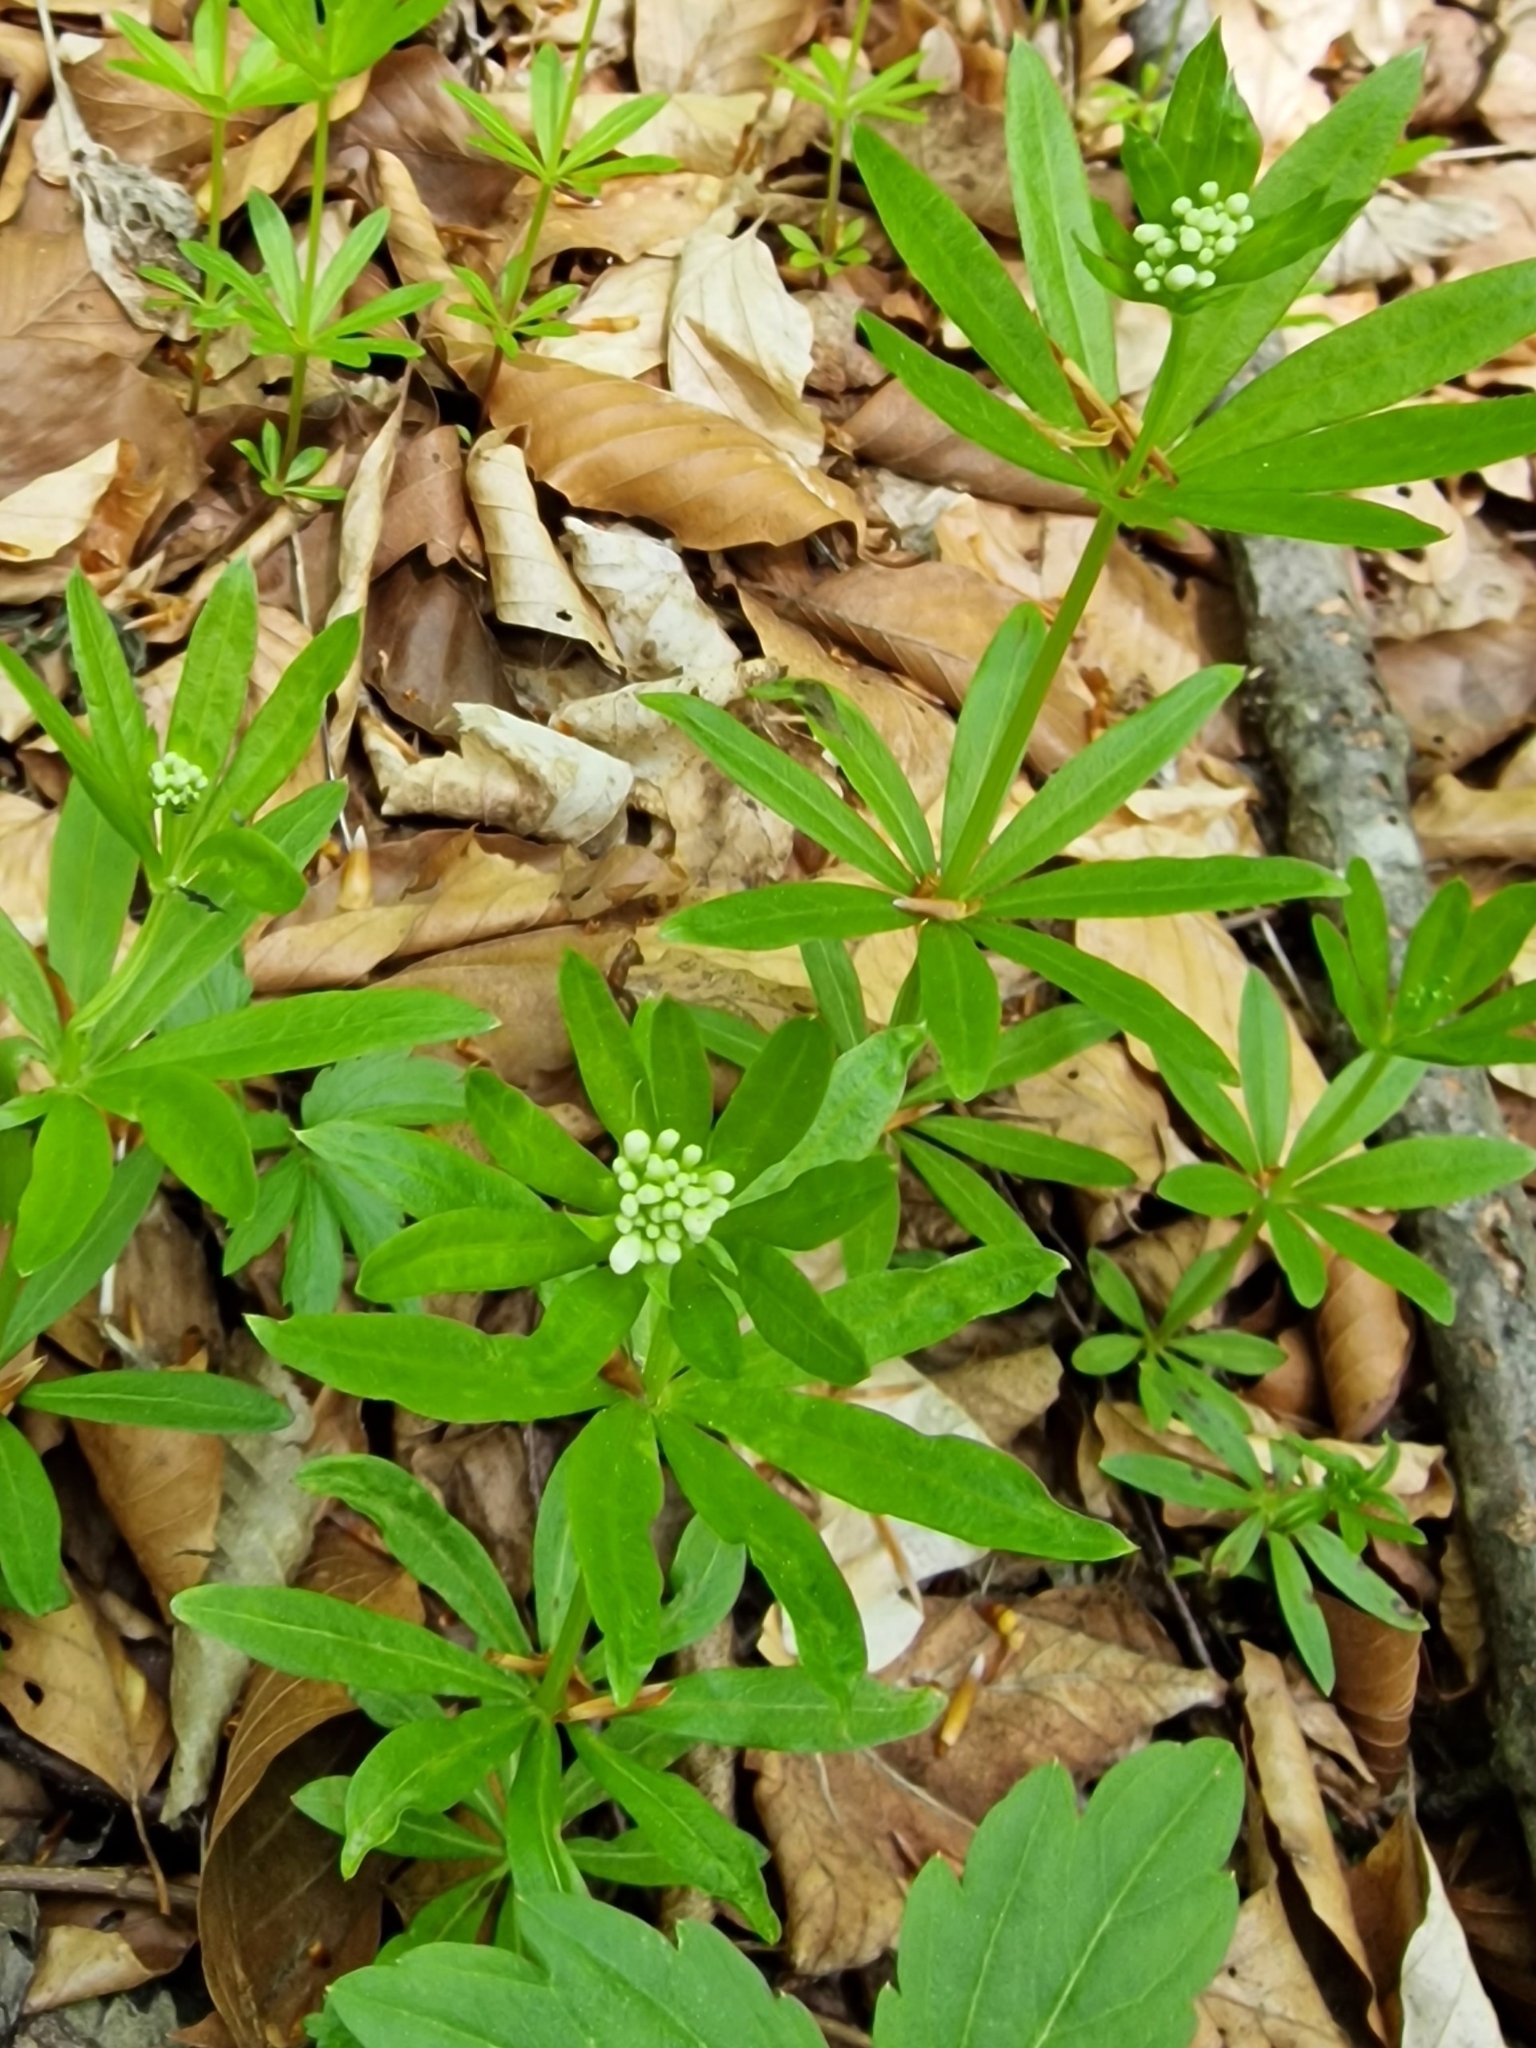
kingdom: Plantae
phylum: Tracheophyta
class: Magnoliopsida
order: Gentianales
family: Rubiaceae
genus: Galium
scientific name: Galium odoratum
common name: Sweet woodruff
